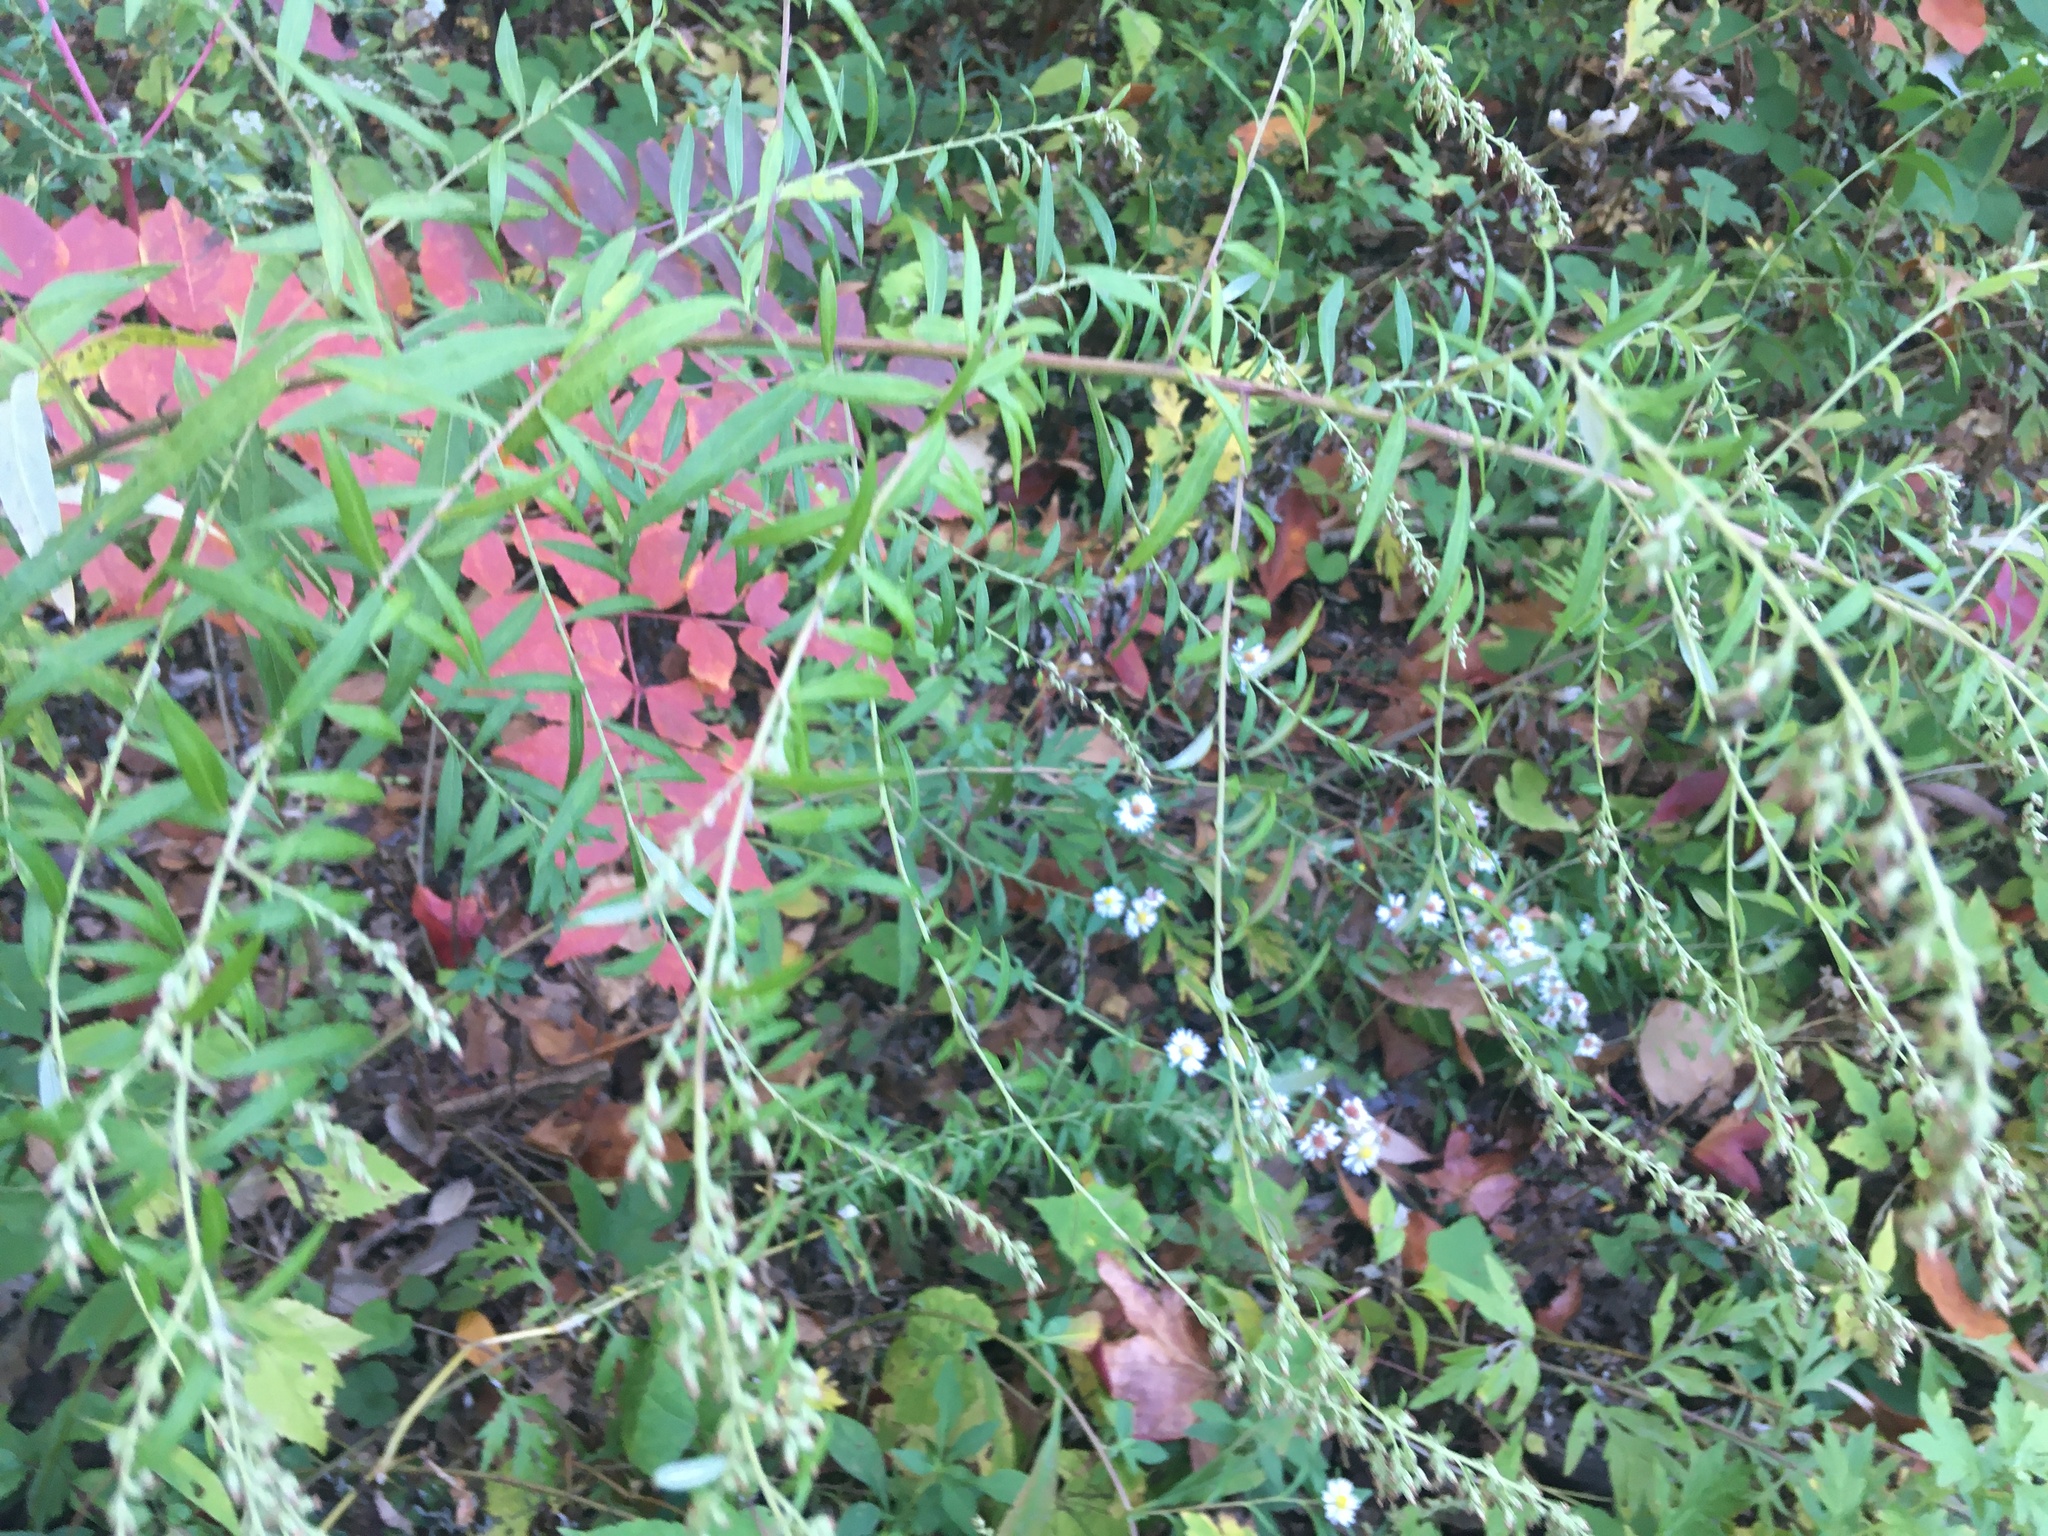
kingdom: Plantae
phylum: Tracheophyta
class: Magnoliopsida
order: Asterales
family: Asteraceae
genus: Artemisia
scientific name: Artemisia vulgaris
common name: Mugwort
